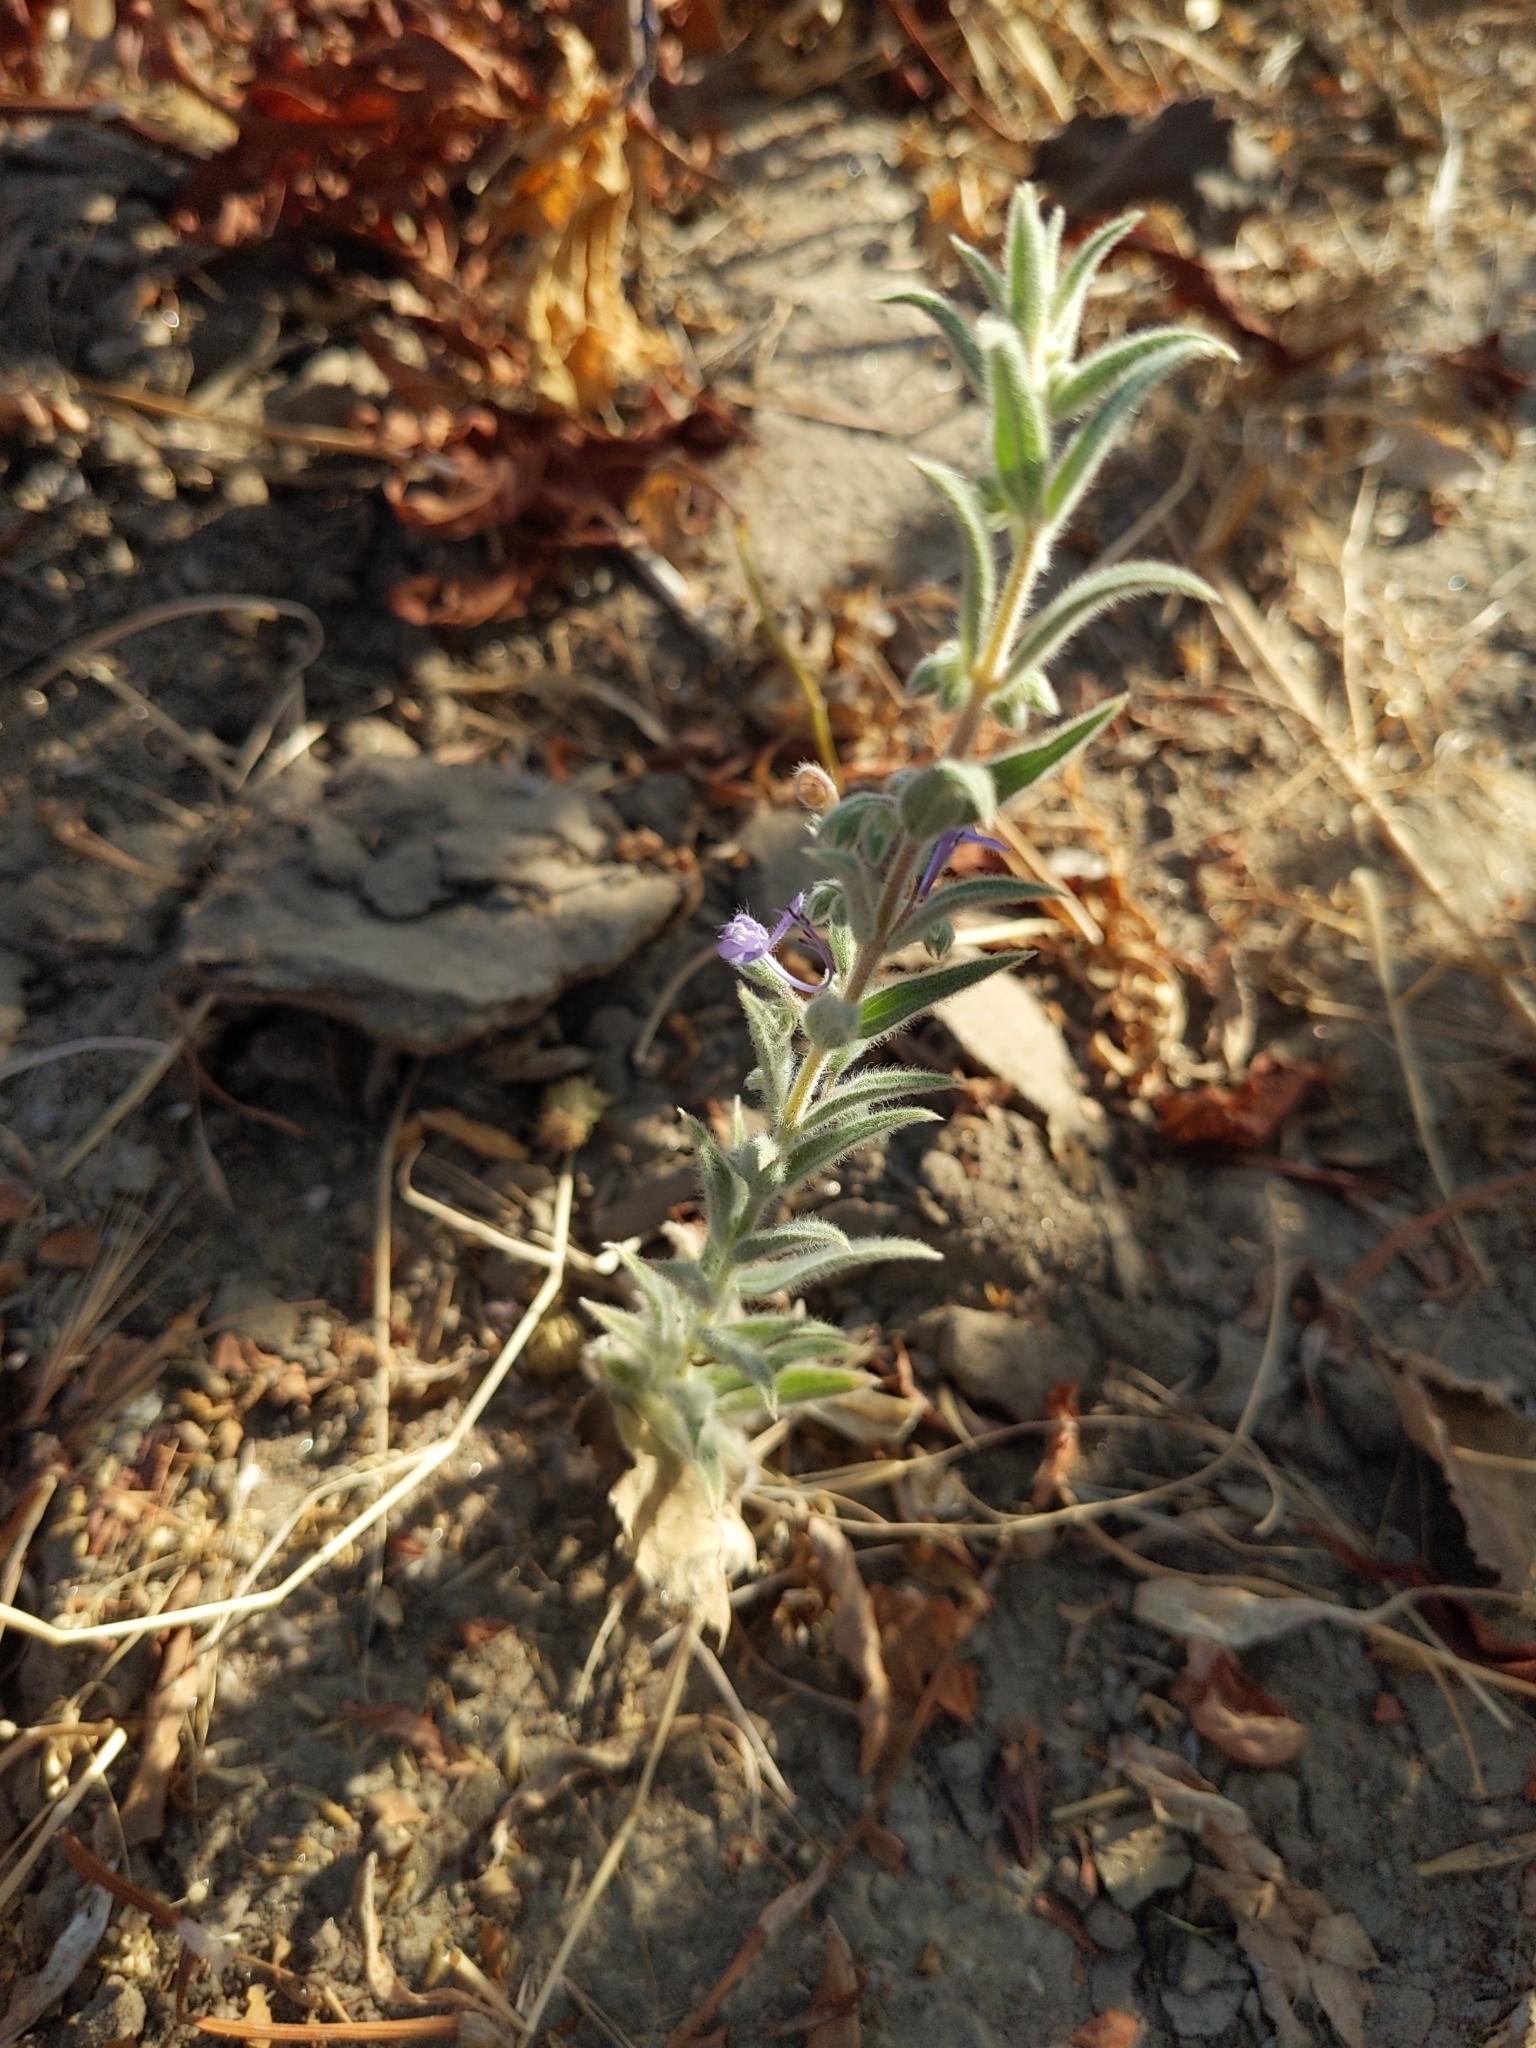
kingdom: Plantae
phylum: Tracheophyta
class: Magnoliopsida
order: Lamiales
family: Lamiaceae
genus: Trichostema
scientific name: Trichostema lanceolatum
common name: Vinegar-weed
